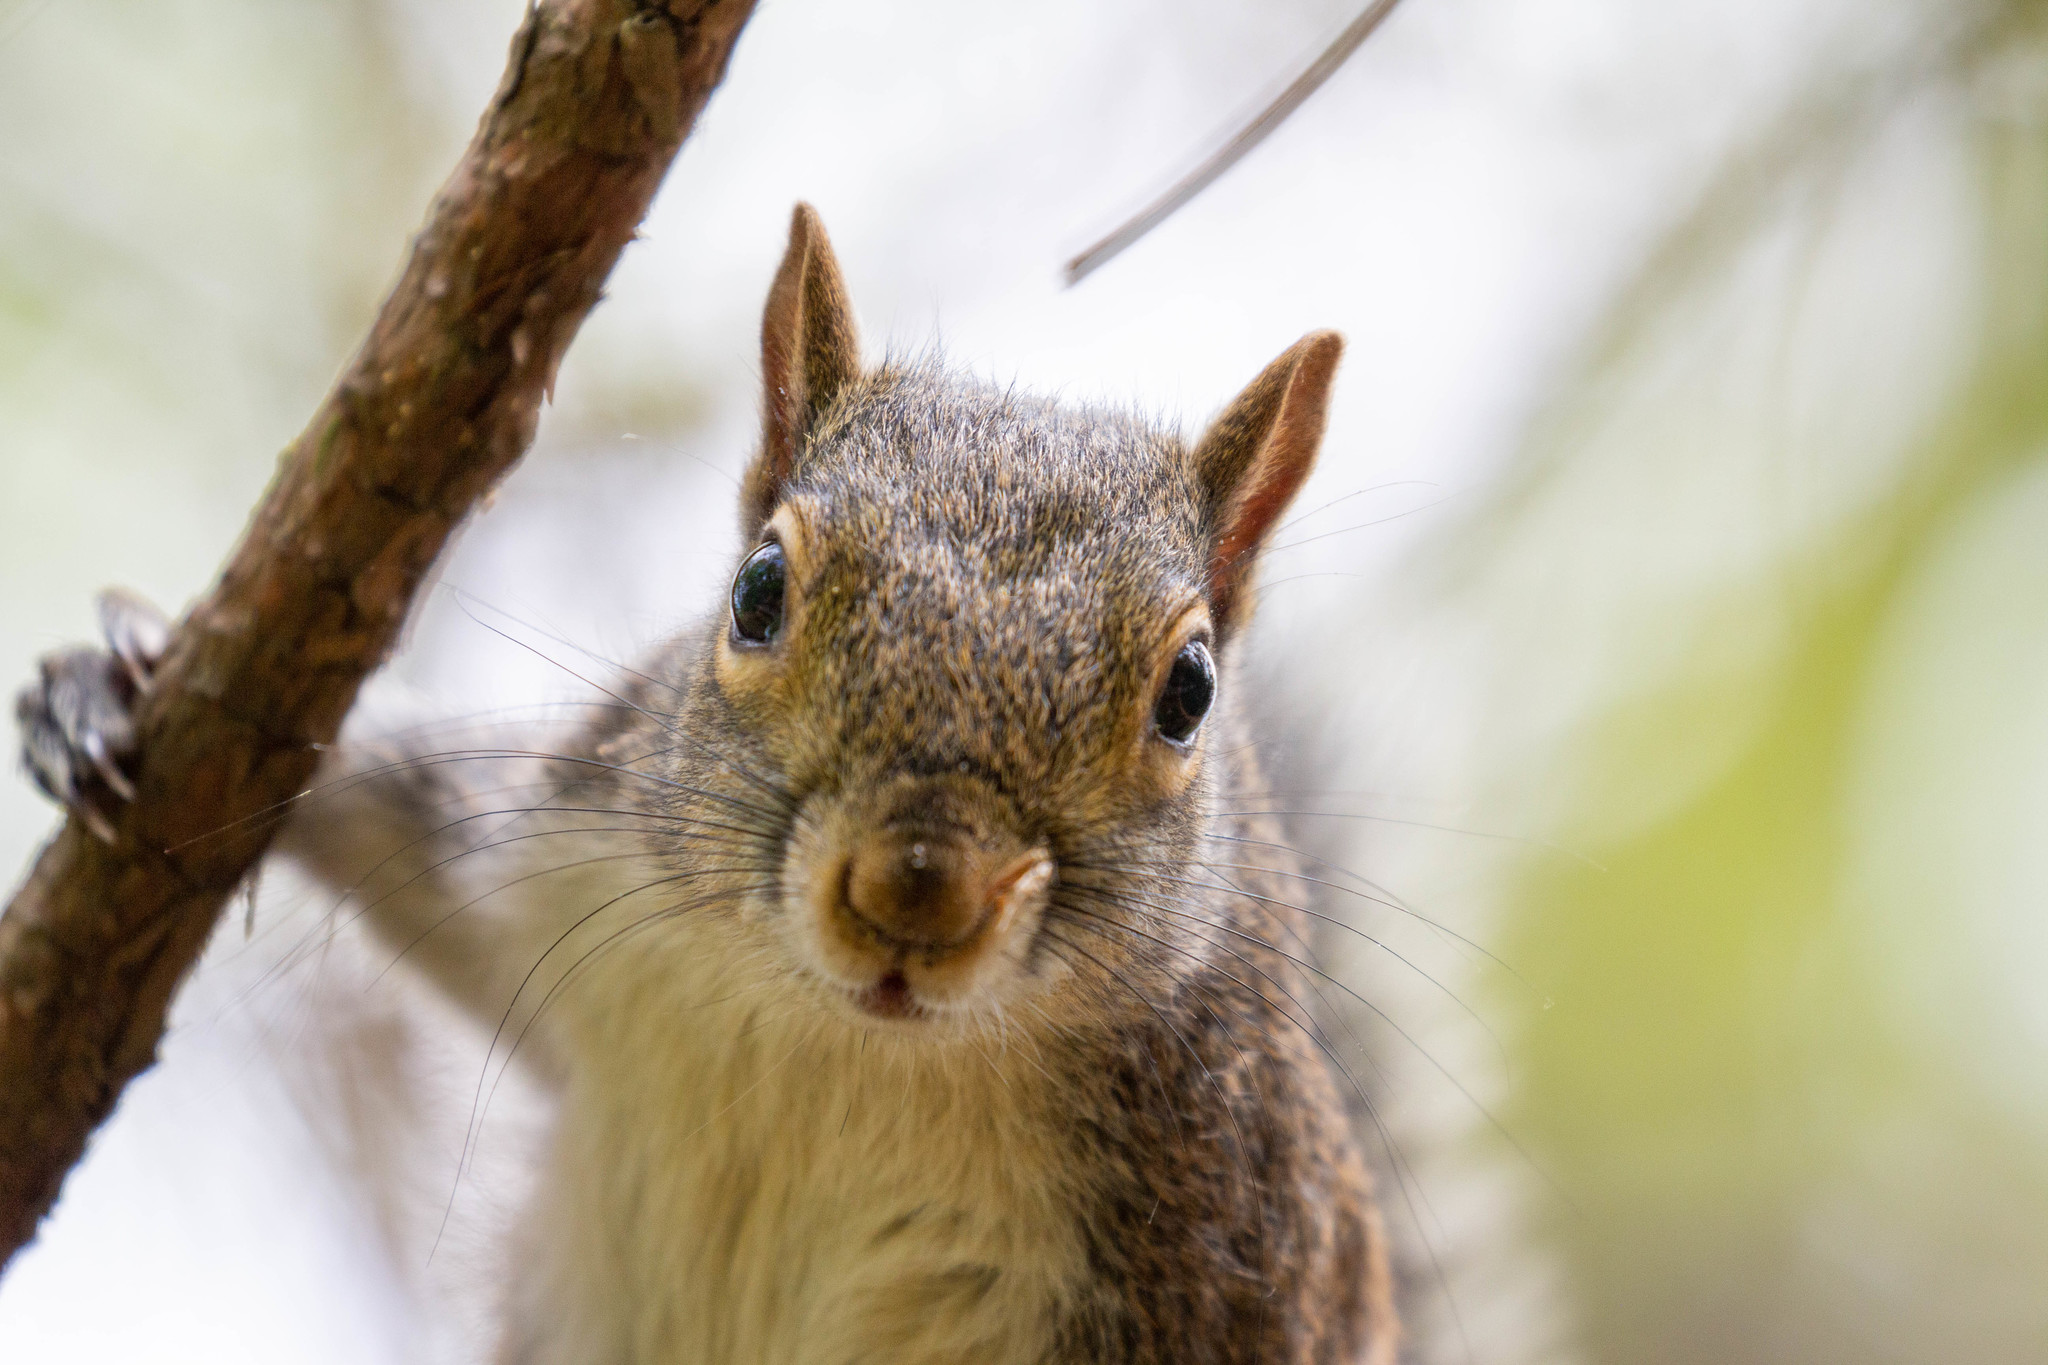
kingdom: Animalia
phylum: Chordata
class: Mammalia
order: Rodentia
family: Sciuridae
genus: Sciurus
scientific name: Sciurus carolinensis
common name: Eastern gray squirrel
